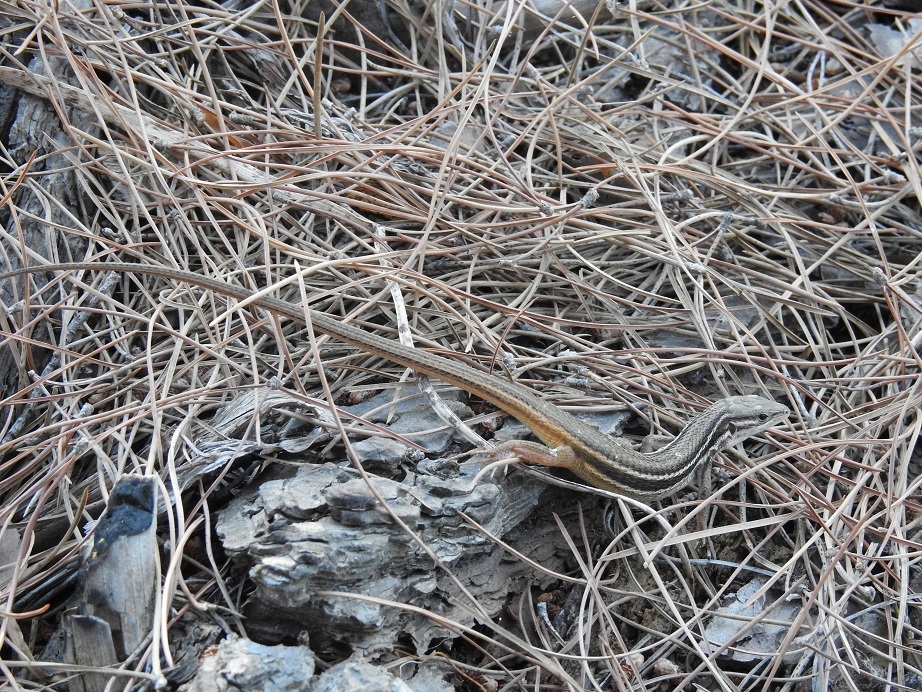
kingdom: Animalia
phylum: Chordata
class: Squamata
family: Lacertidae
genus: Psammodromus
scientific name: Psammodromus algirus
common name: Algerian psammodromus
